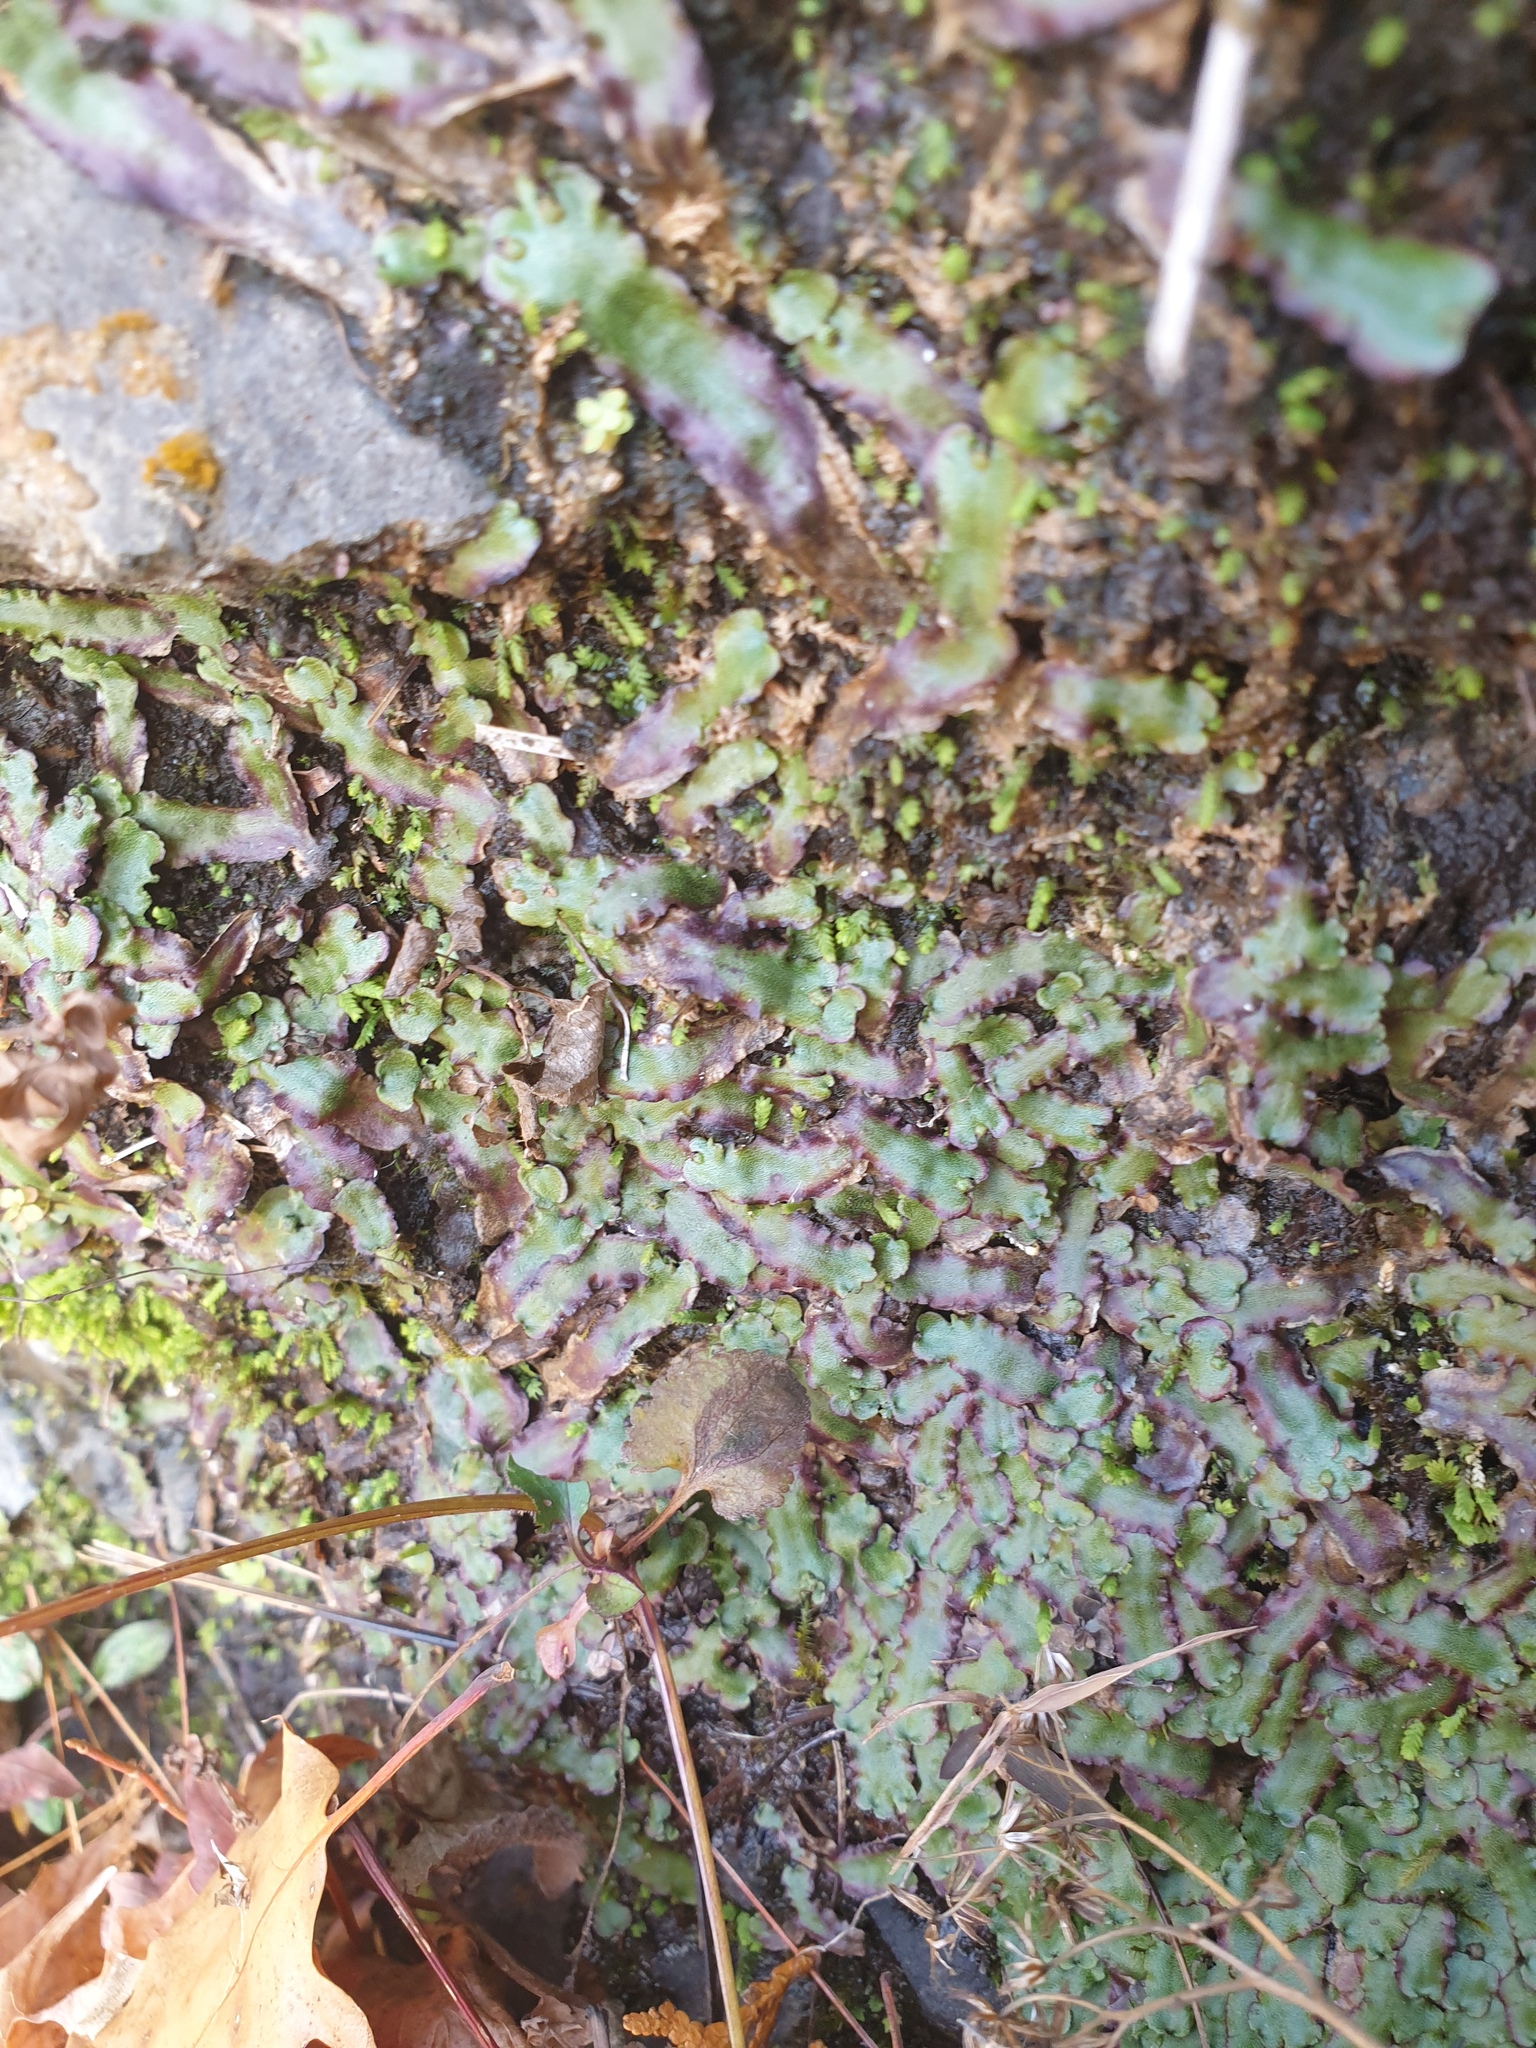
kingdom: Plantae
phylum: Marchantiophyta
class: Marchantiopsida
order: Marchantiales
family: Marchantiaceae
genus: Marchantia
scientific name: Marchantia quadrata
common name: Narrow mushroom-headed liverwort
